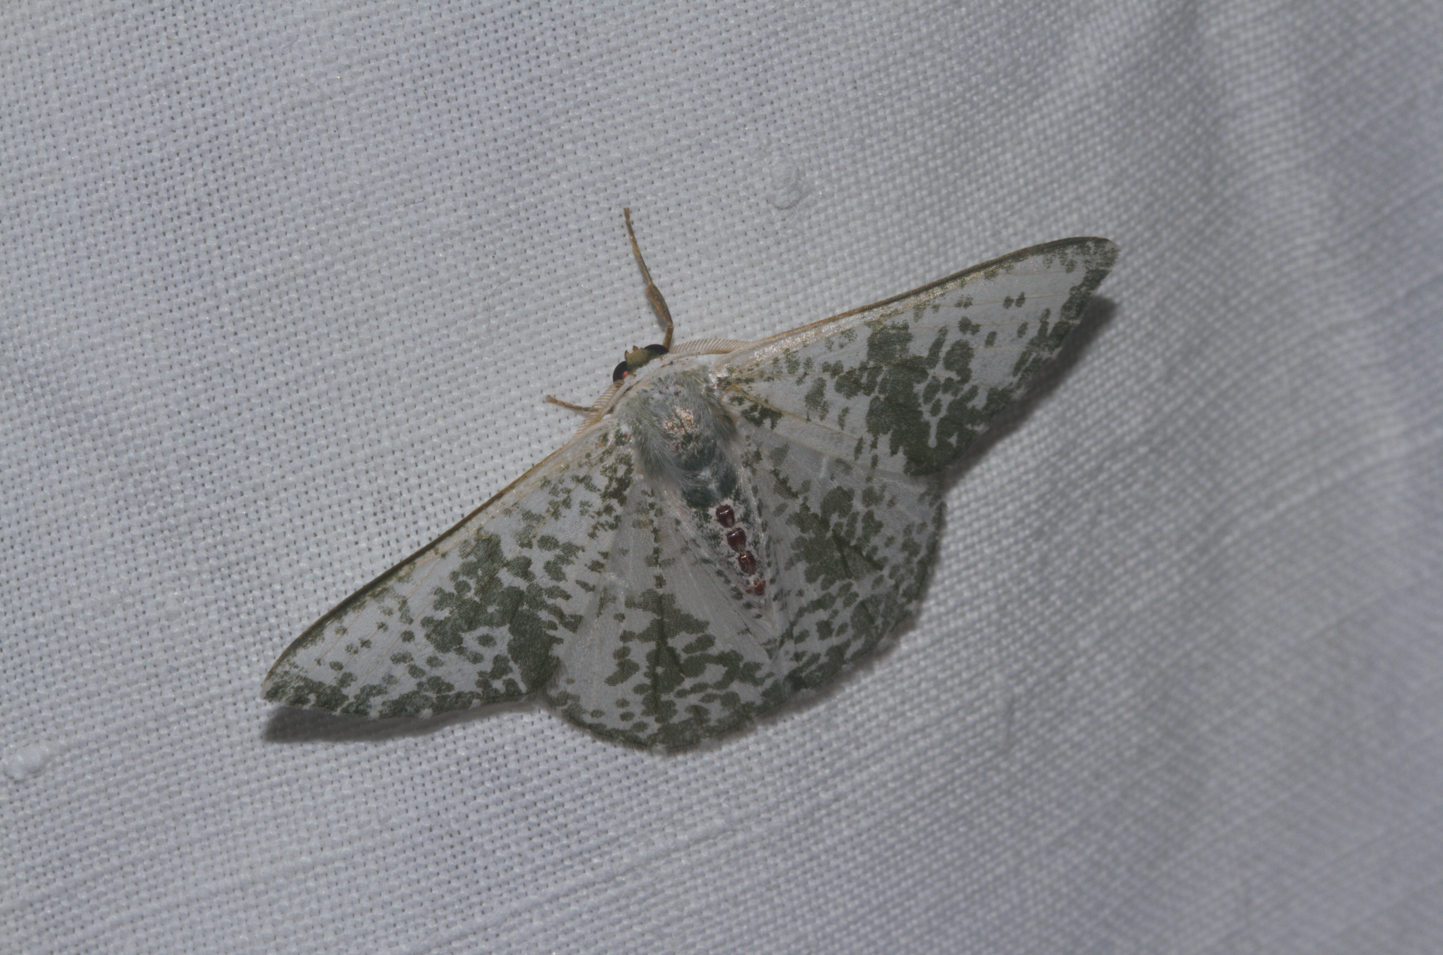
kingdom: Animalia
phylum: Arthropoda
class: Insecta
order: Lepidoptera
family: Geometridae
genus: Oospila
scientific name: Oospila sporadata
